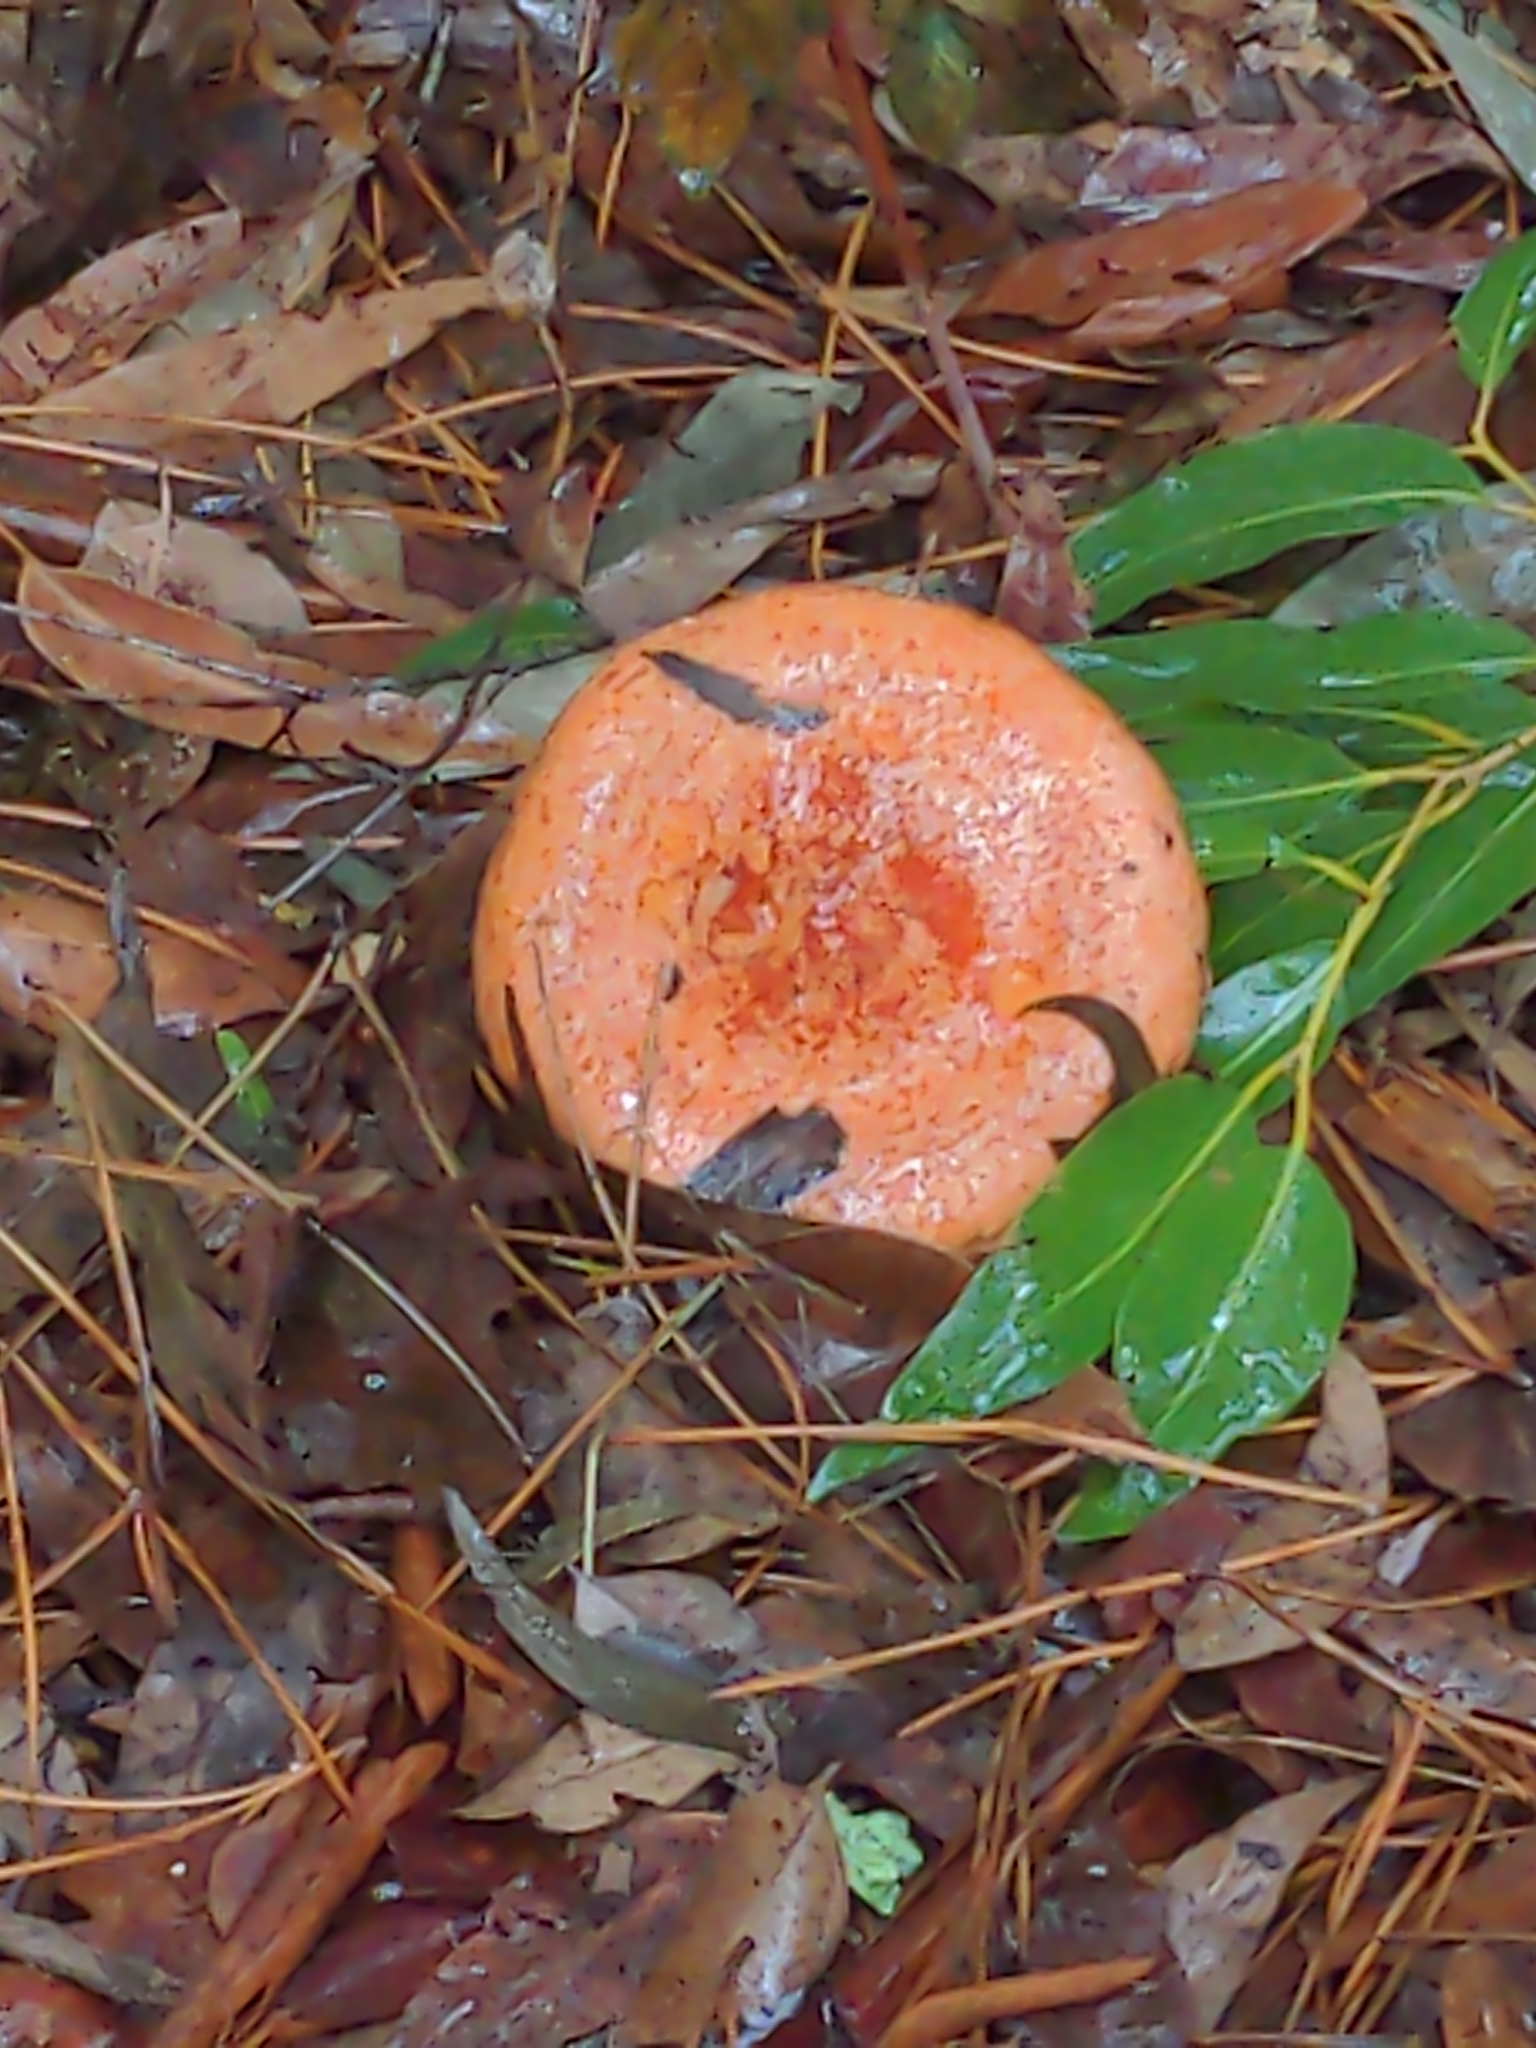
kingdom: Fungi
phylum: Basidiomycota
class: Agaricomycetes
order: Russulales
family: Russulaceae
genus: Lactarius
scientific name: Lactarius deliciosus
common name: Saffron milk-cap
